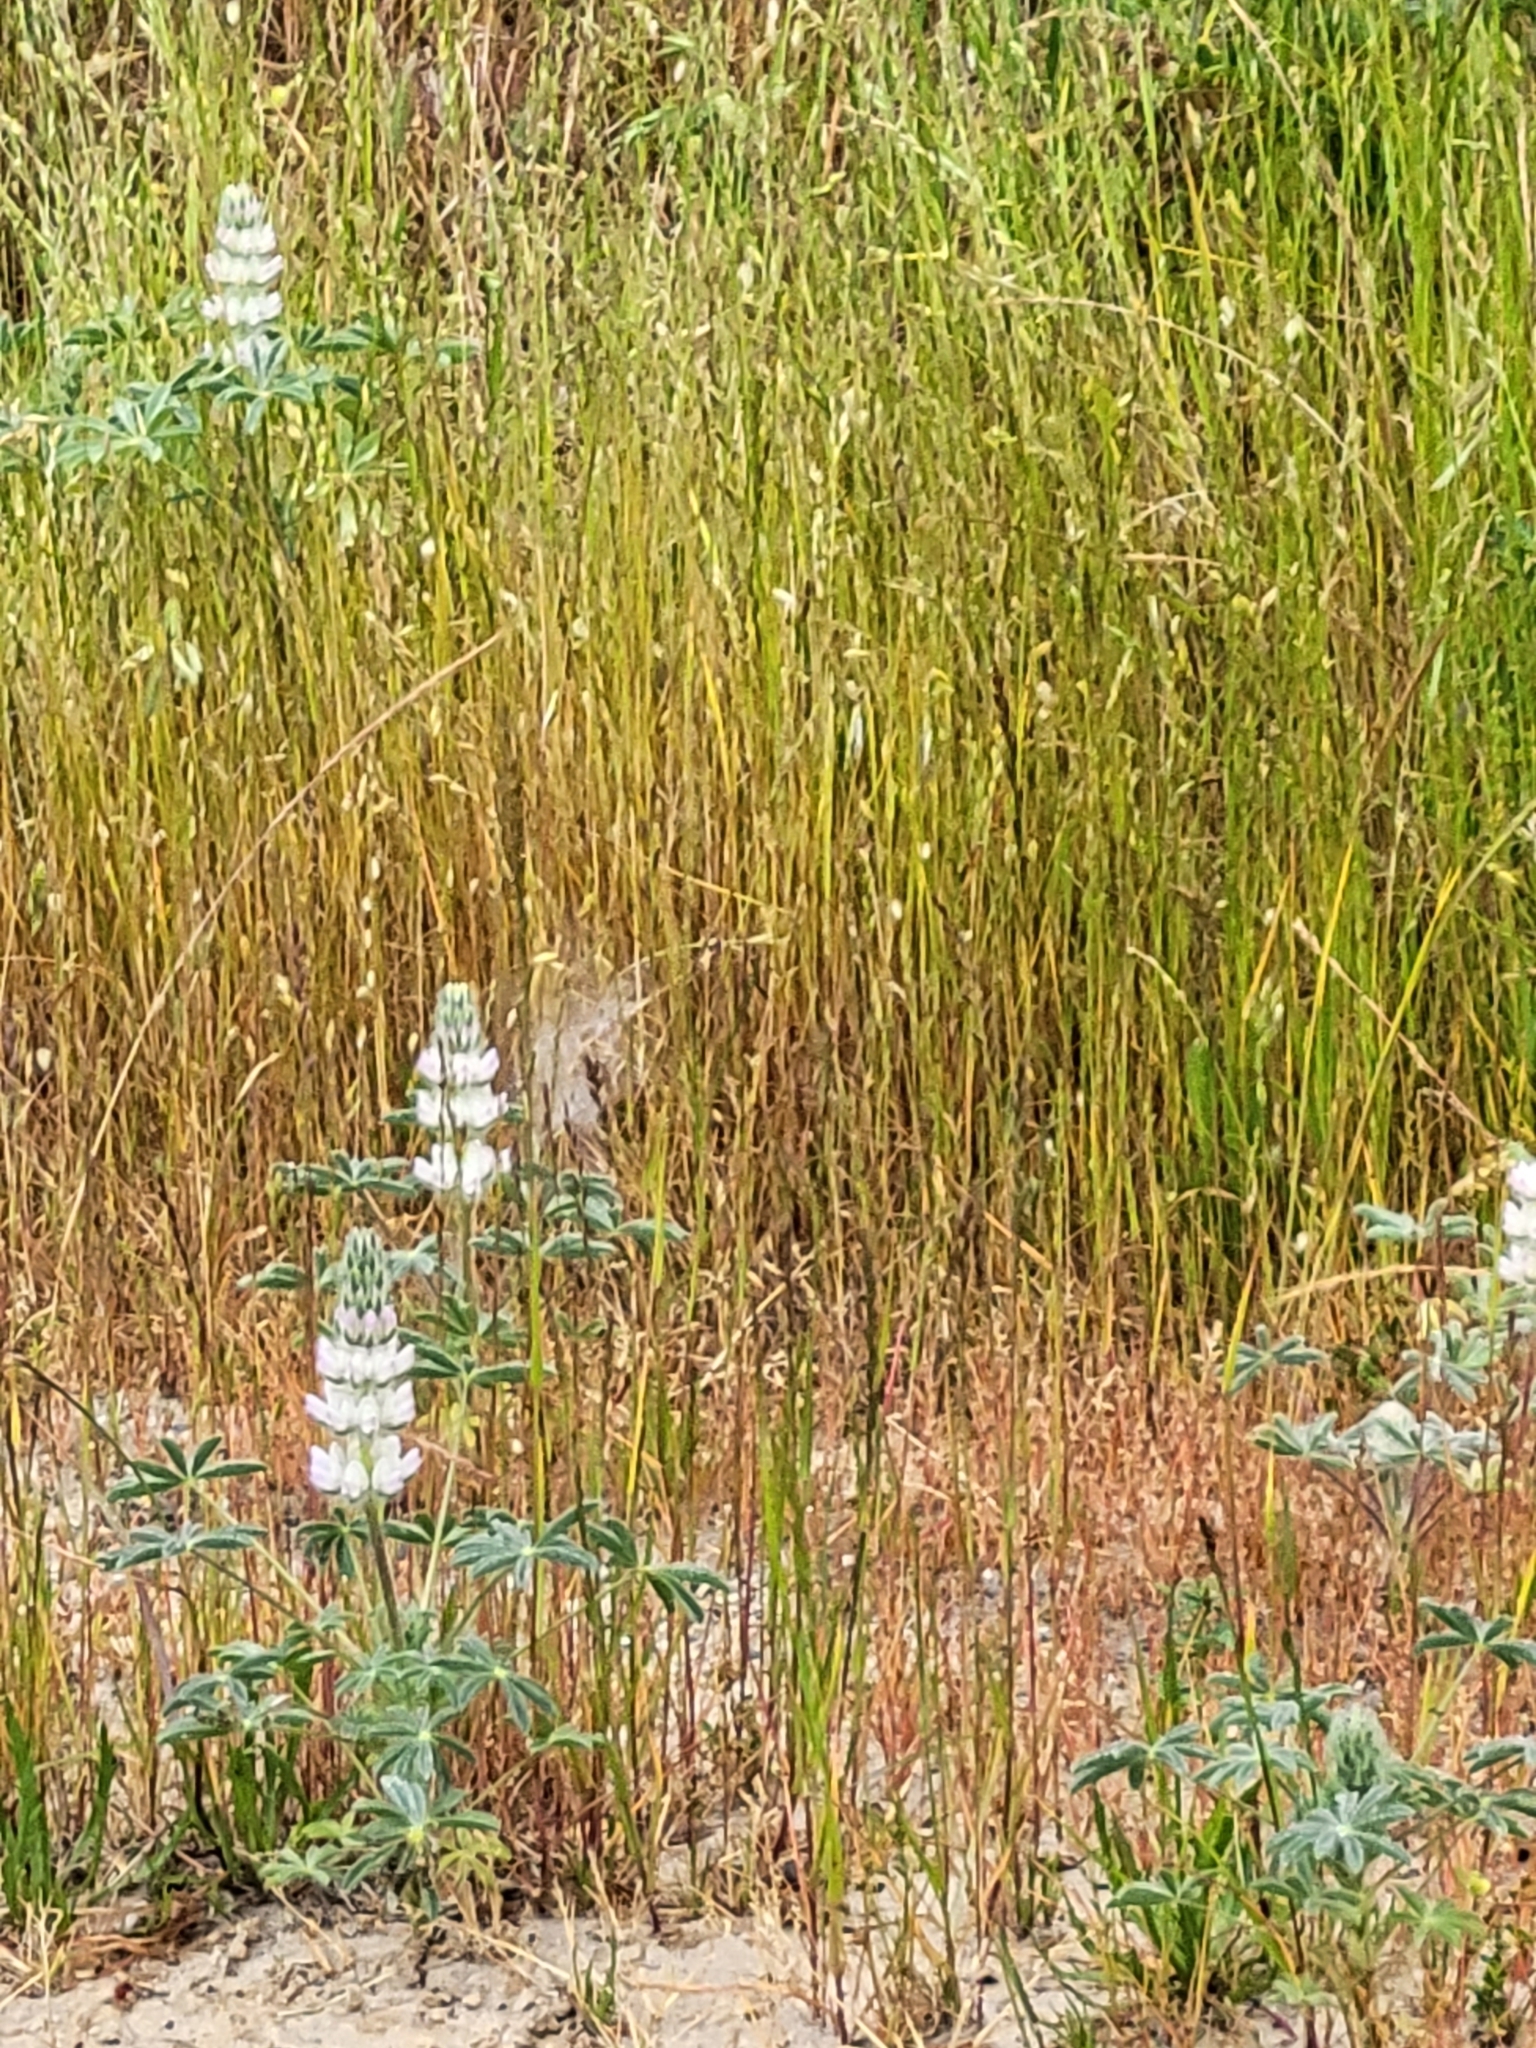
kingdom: Plantae
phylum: Tracheophyta
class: Magnoliopsida
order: Fabales
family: Fabaceae
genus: Lupinus
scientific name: Lupinus microcarpus
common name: Chick lupine
